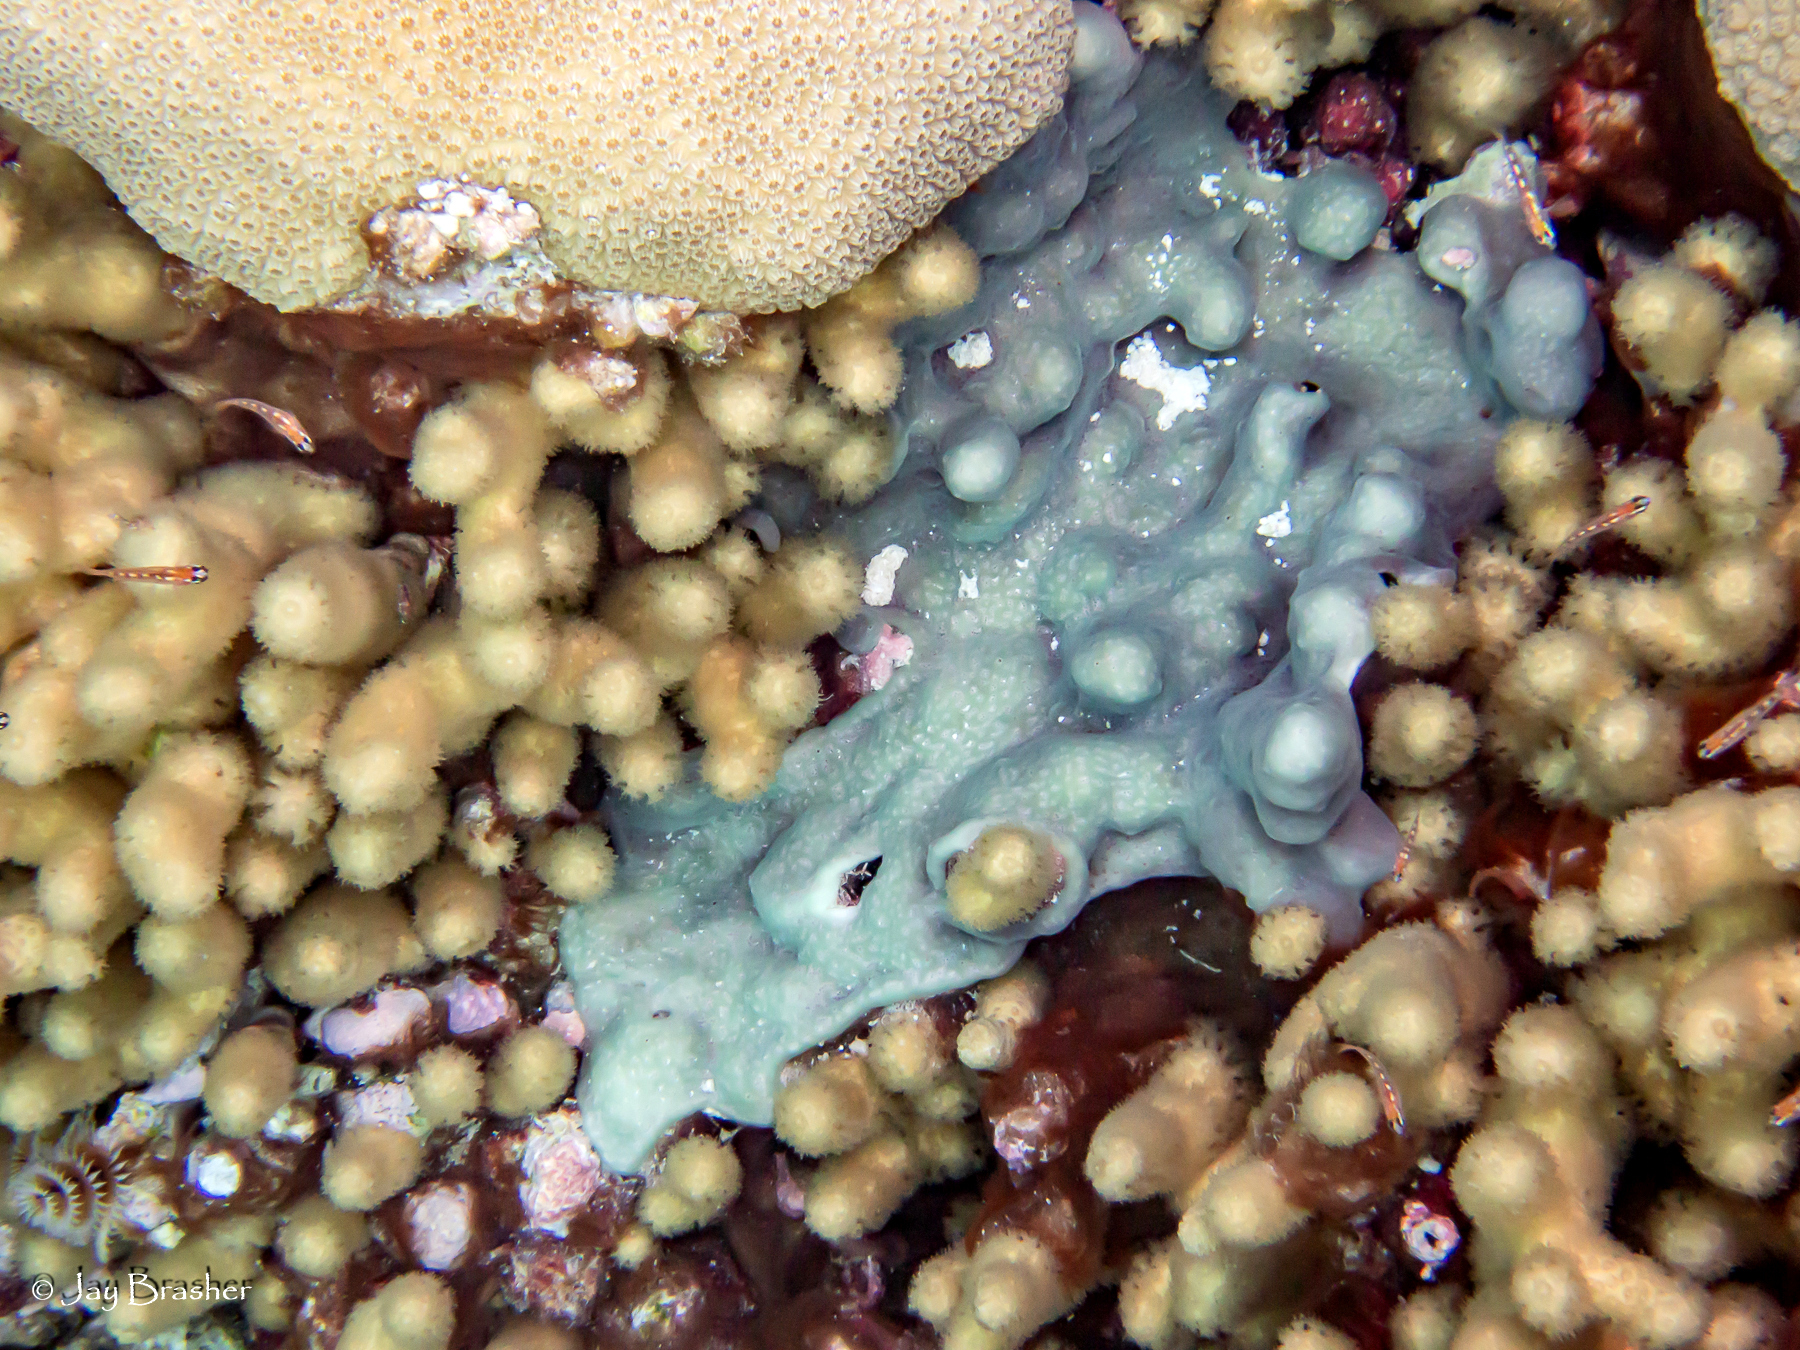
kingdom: Animalia
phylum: Cnidaria
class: Anthozoa
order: Scleractinia
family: Pocilloporidae
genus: Madracis
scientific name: Madracis auretenra
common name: Yellow pencil coral
